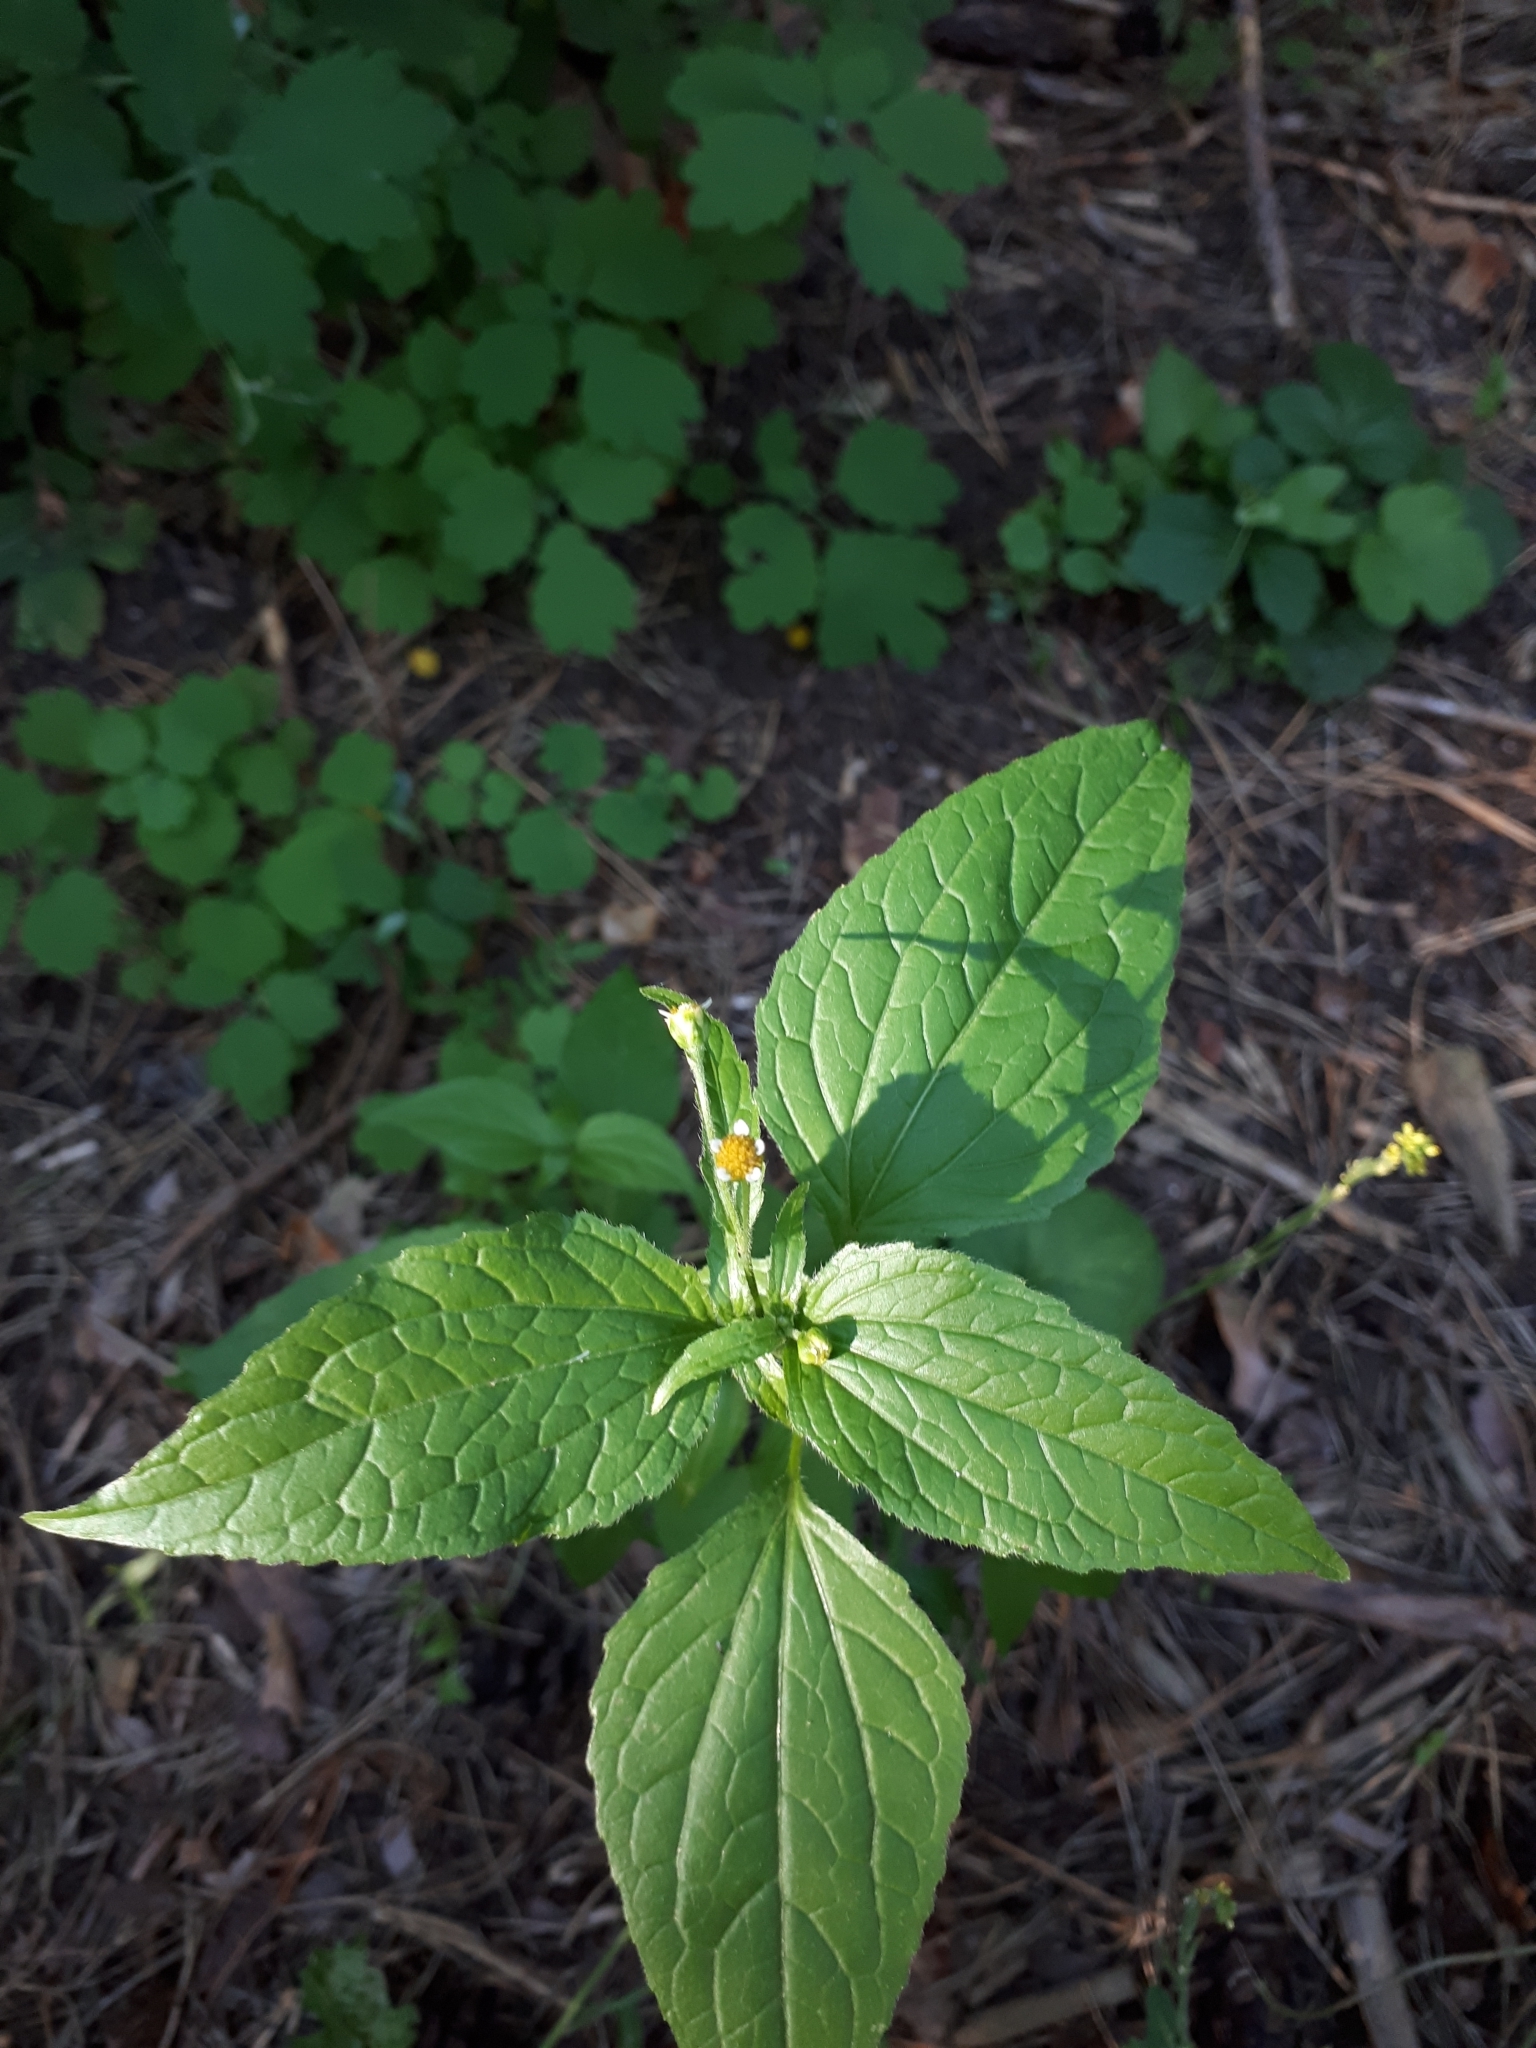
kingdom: Plantae
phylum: Tracheophyta
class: Magnoliopsida
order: Asterales
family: Asteraceae
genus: Galinsoga
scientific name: Galinsoga parviflora
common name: Gallant soldier
